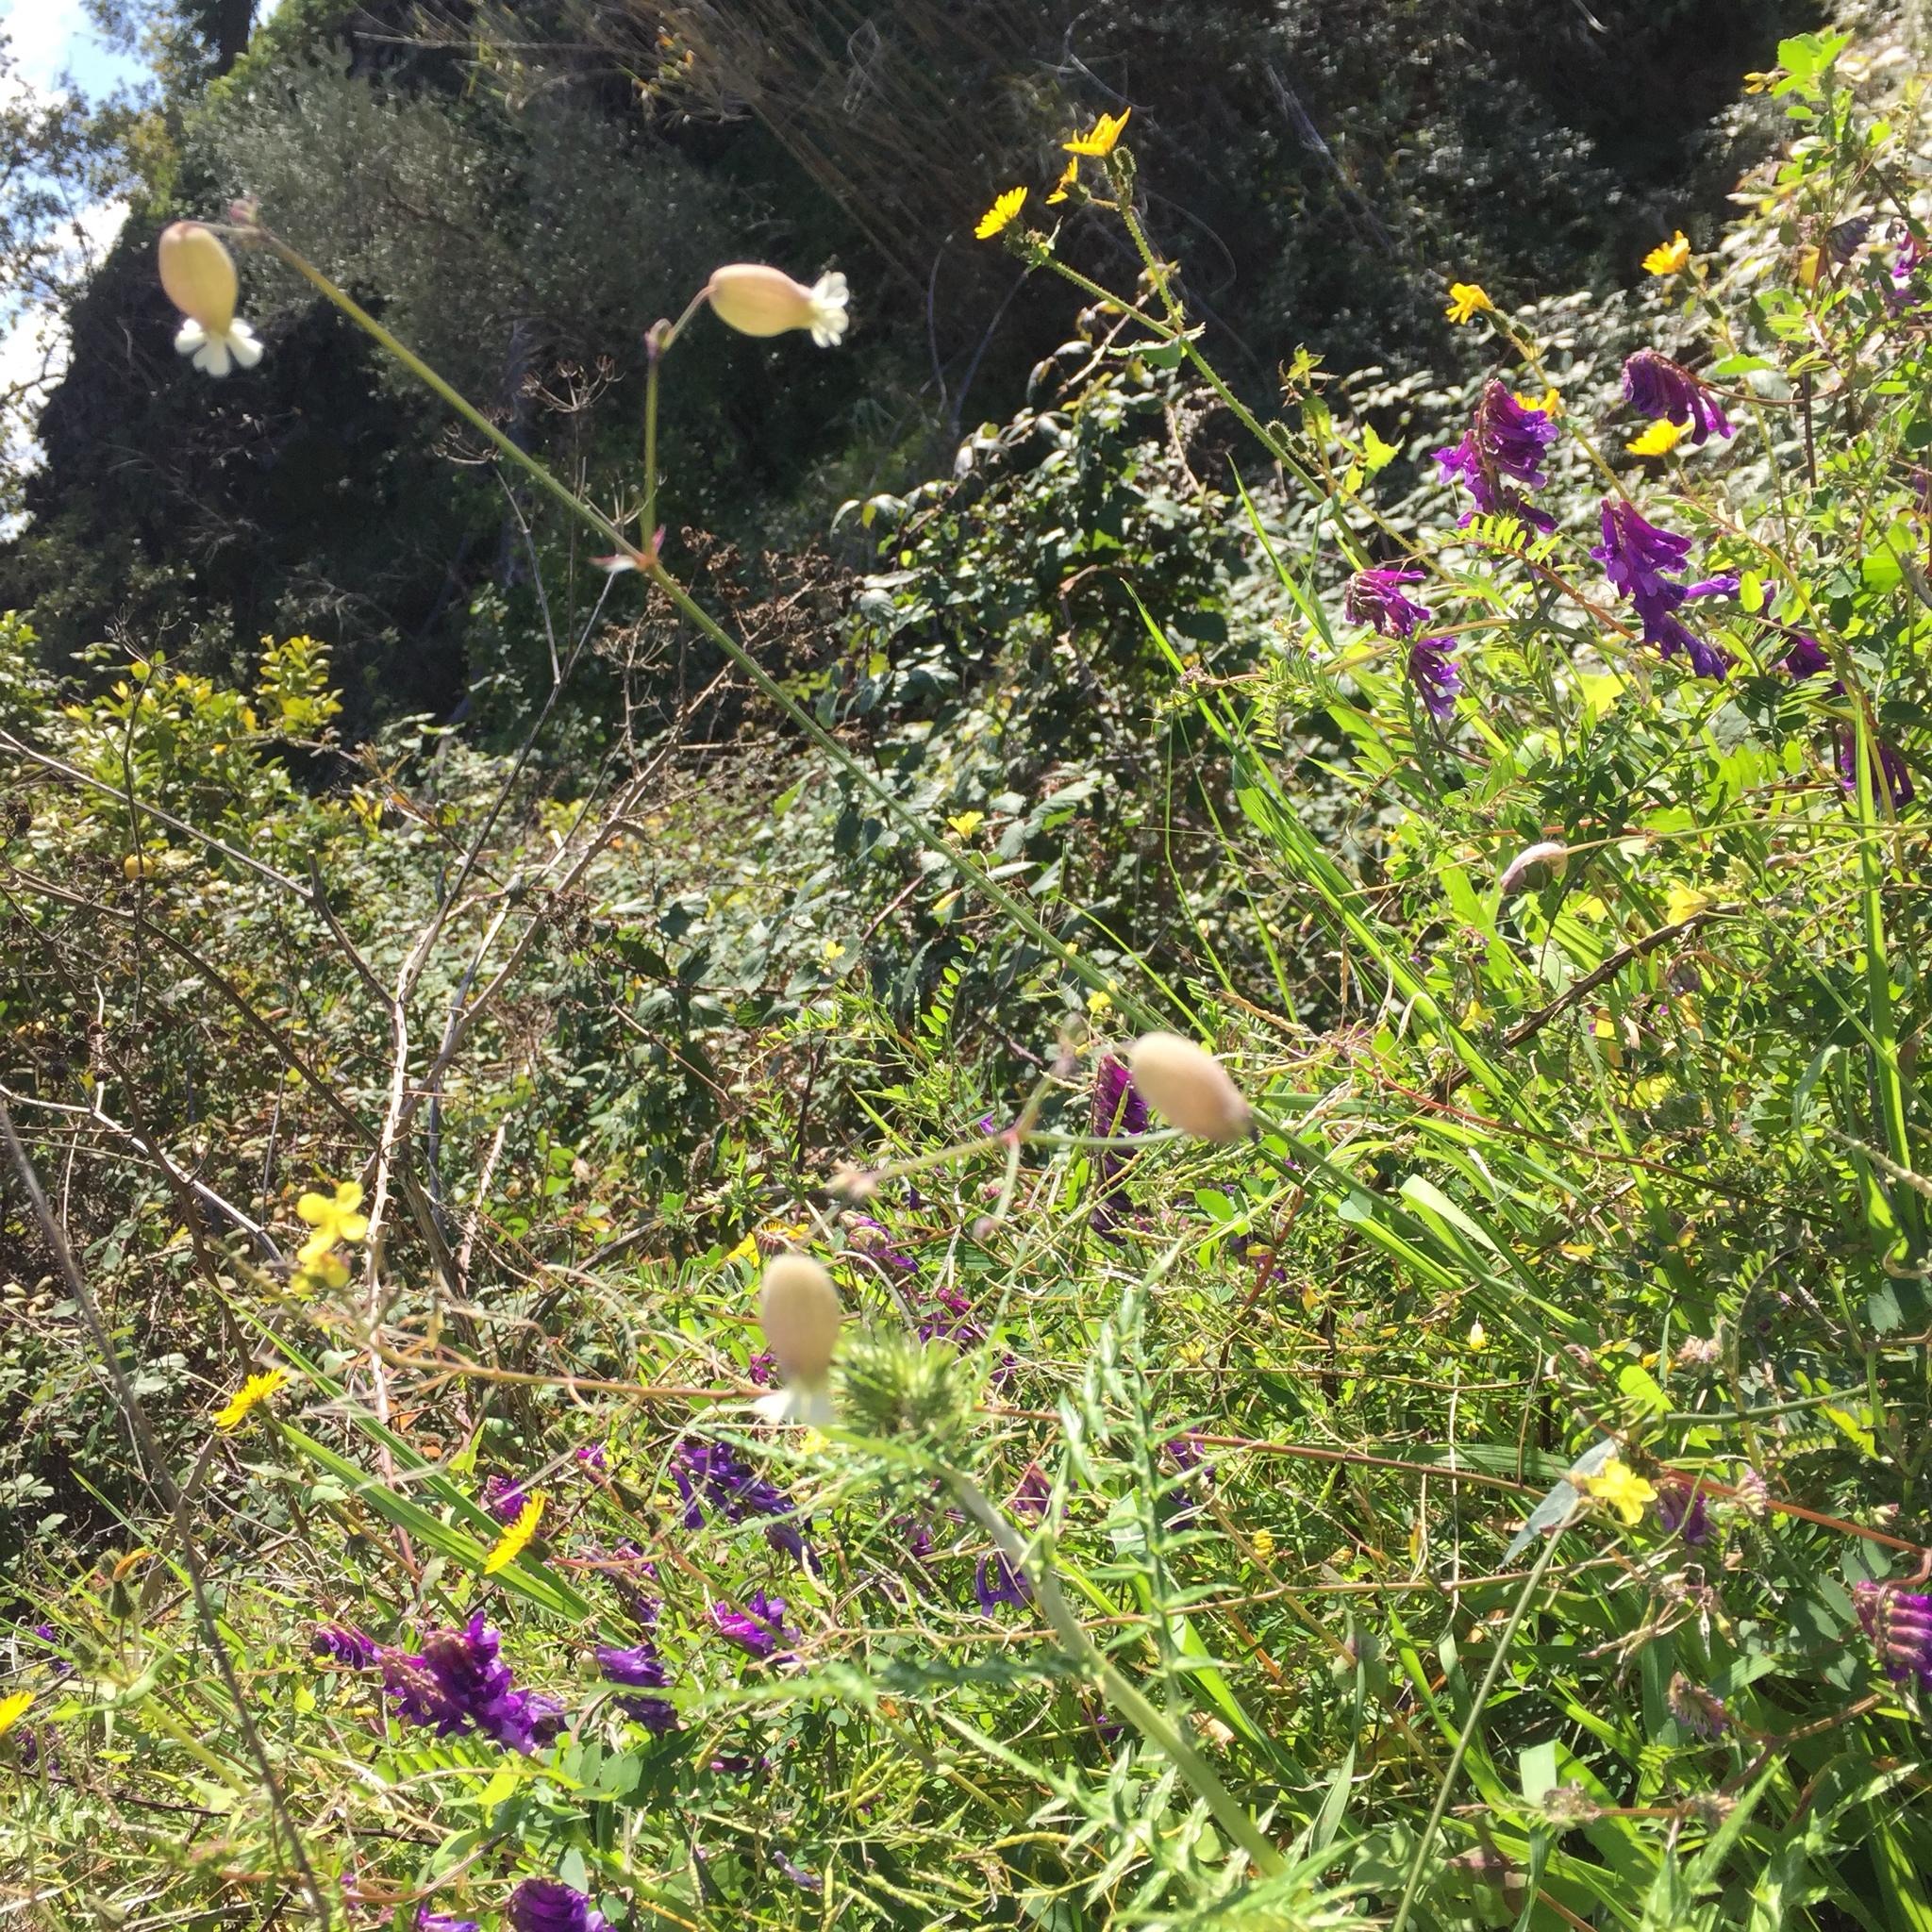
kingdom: Plantae
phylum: Tracheophyta
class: Magnoliopsida
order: Caryophyllales
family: Caryophyllaceae
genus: Silene
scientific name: Silene vulgaris
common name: Bladder campion
